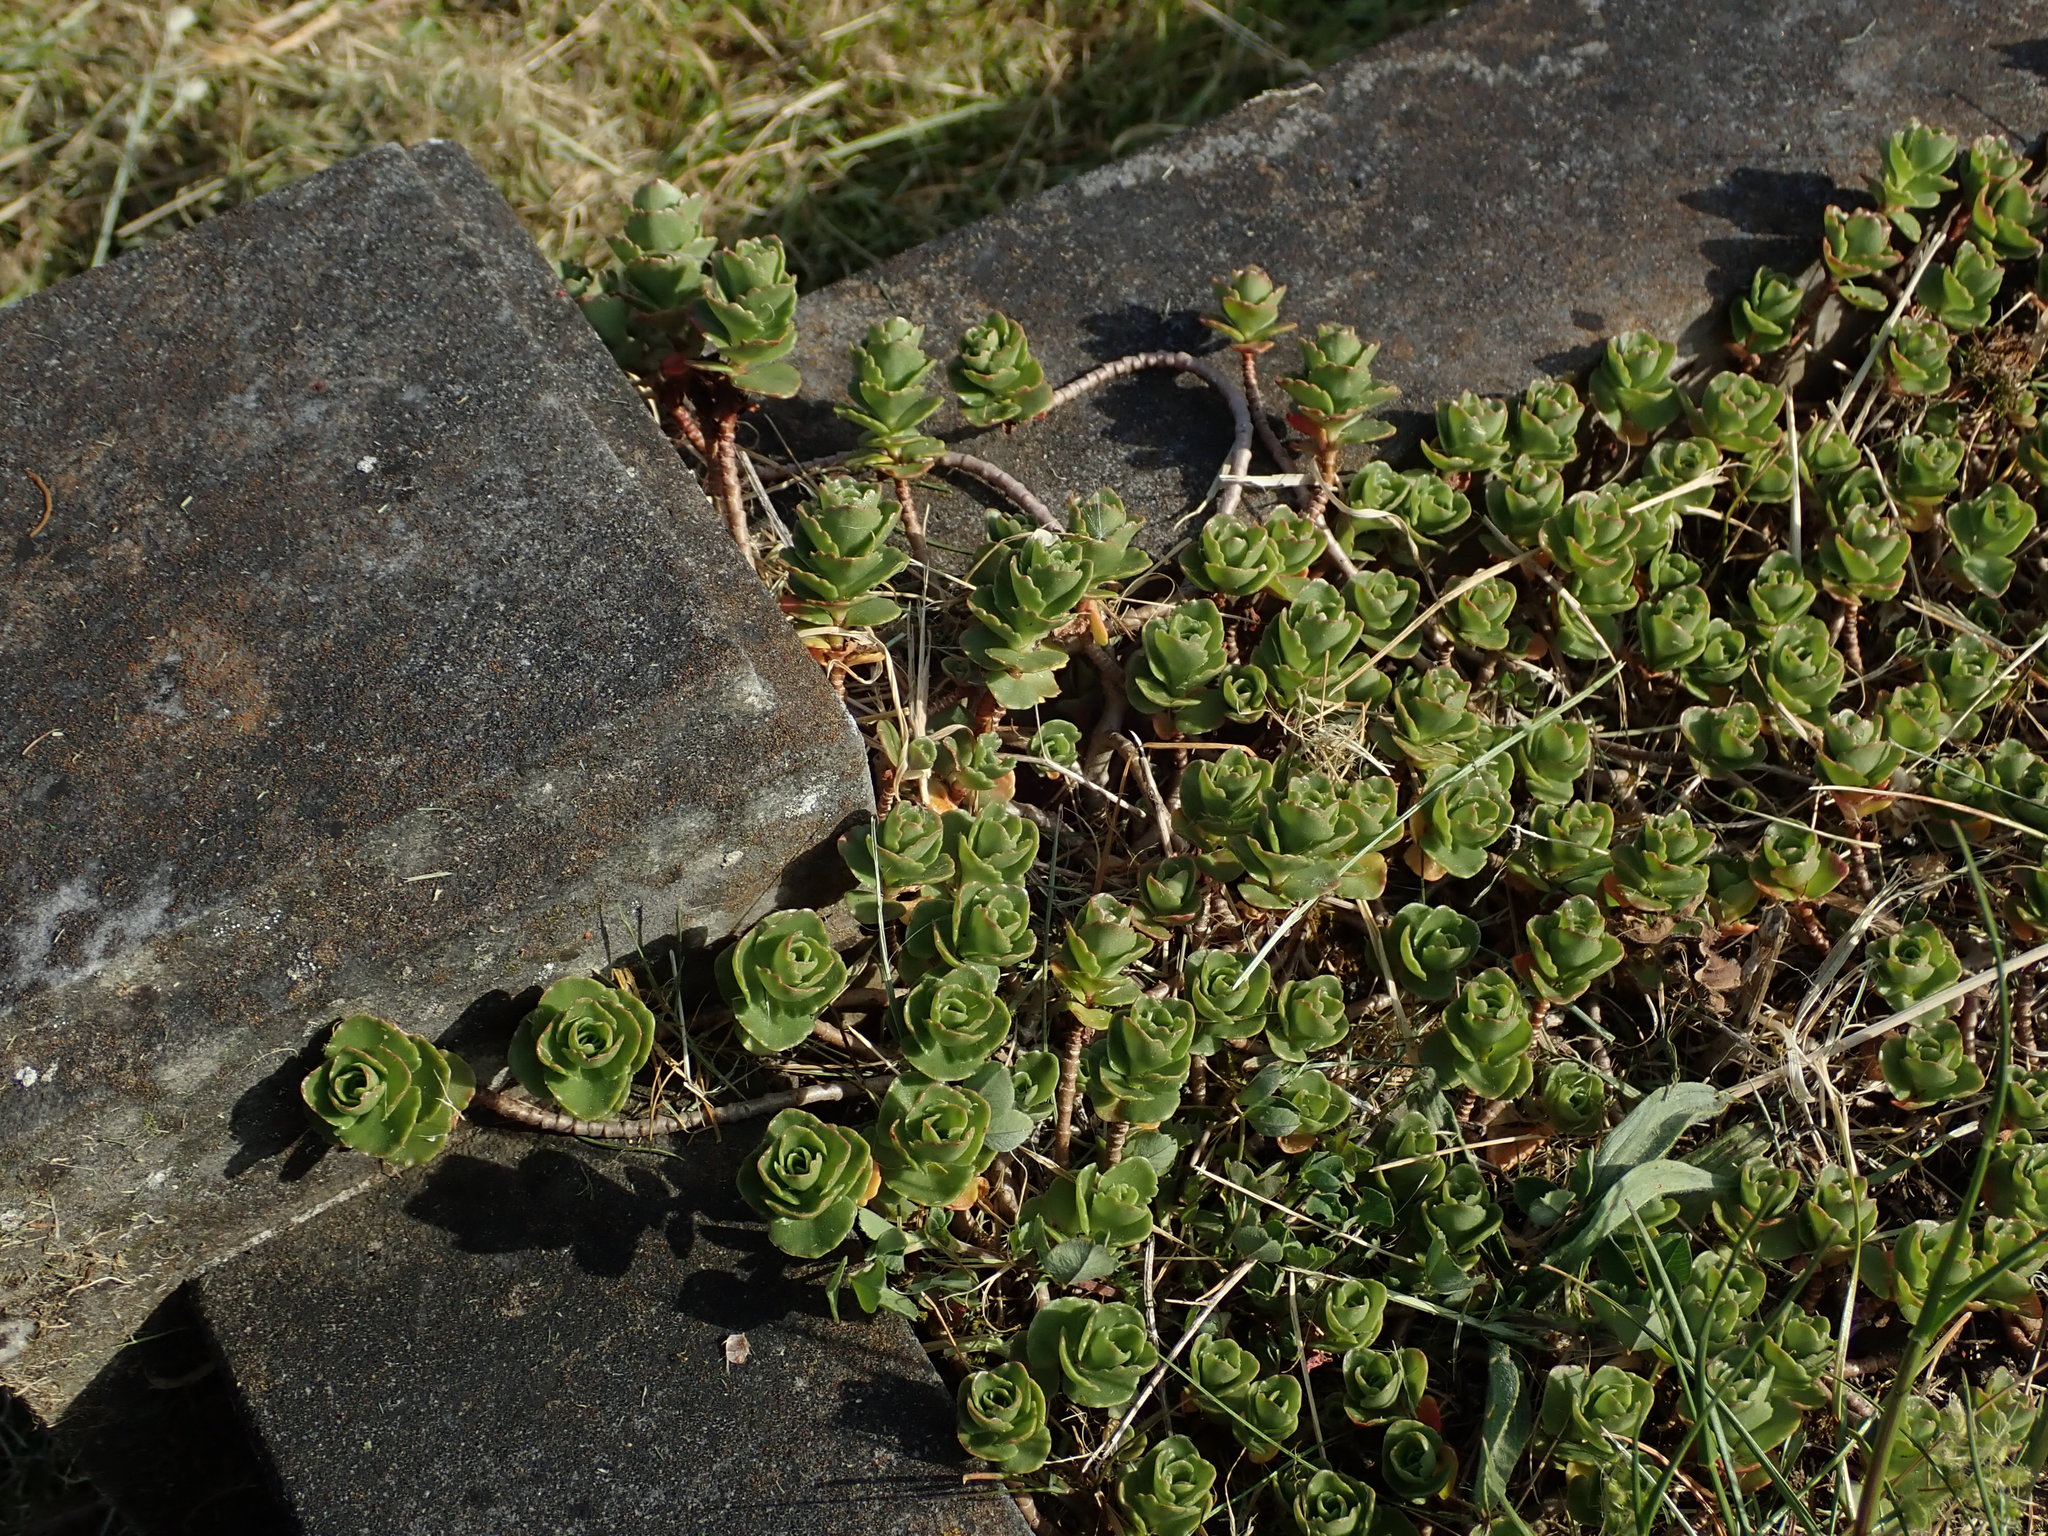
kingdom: Plantae
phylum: Tracheophyta
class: Magnoliopsida
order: Saxifragales
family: Crassulaceae
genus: Phedimus
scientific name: Phedimus spurius
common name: Caucasian stonecrop
